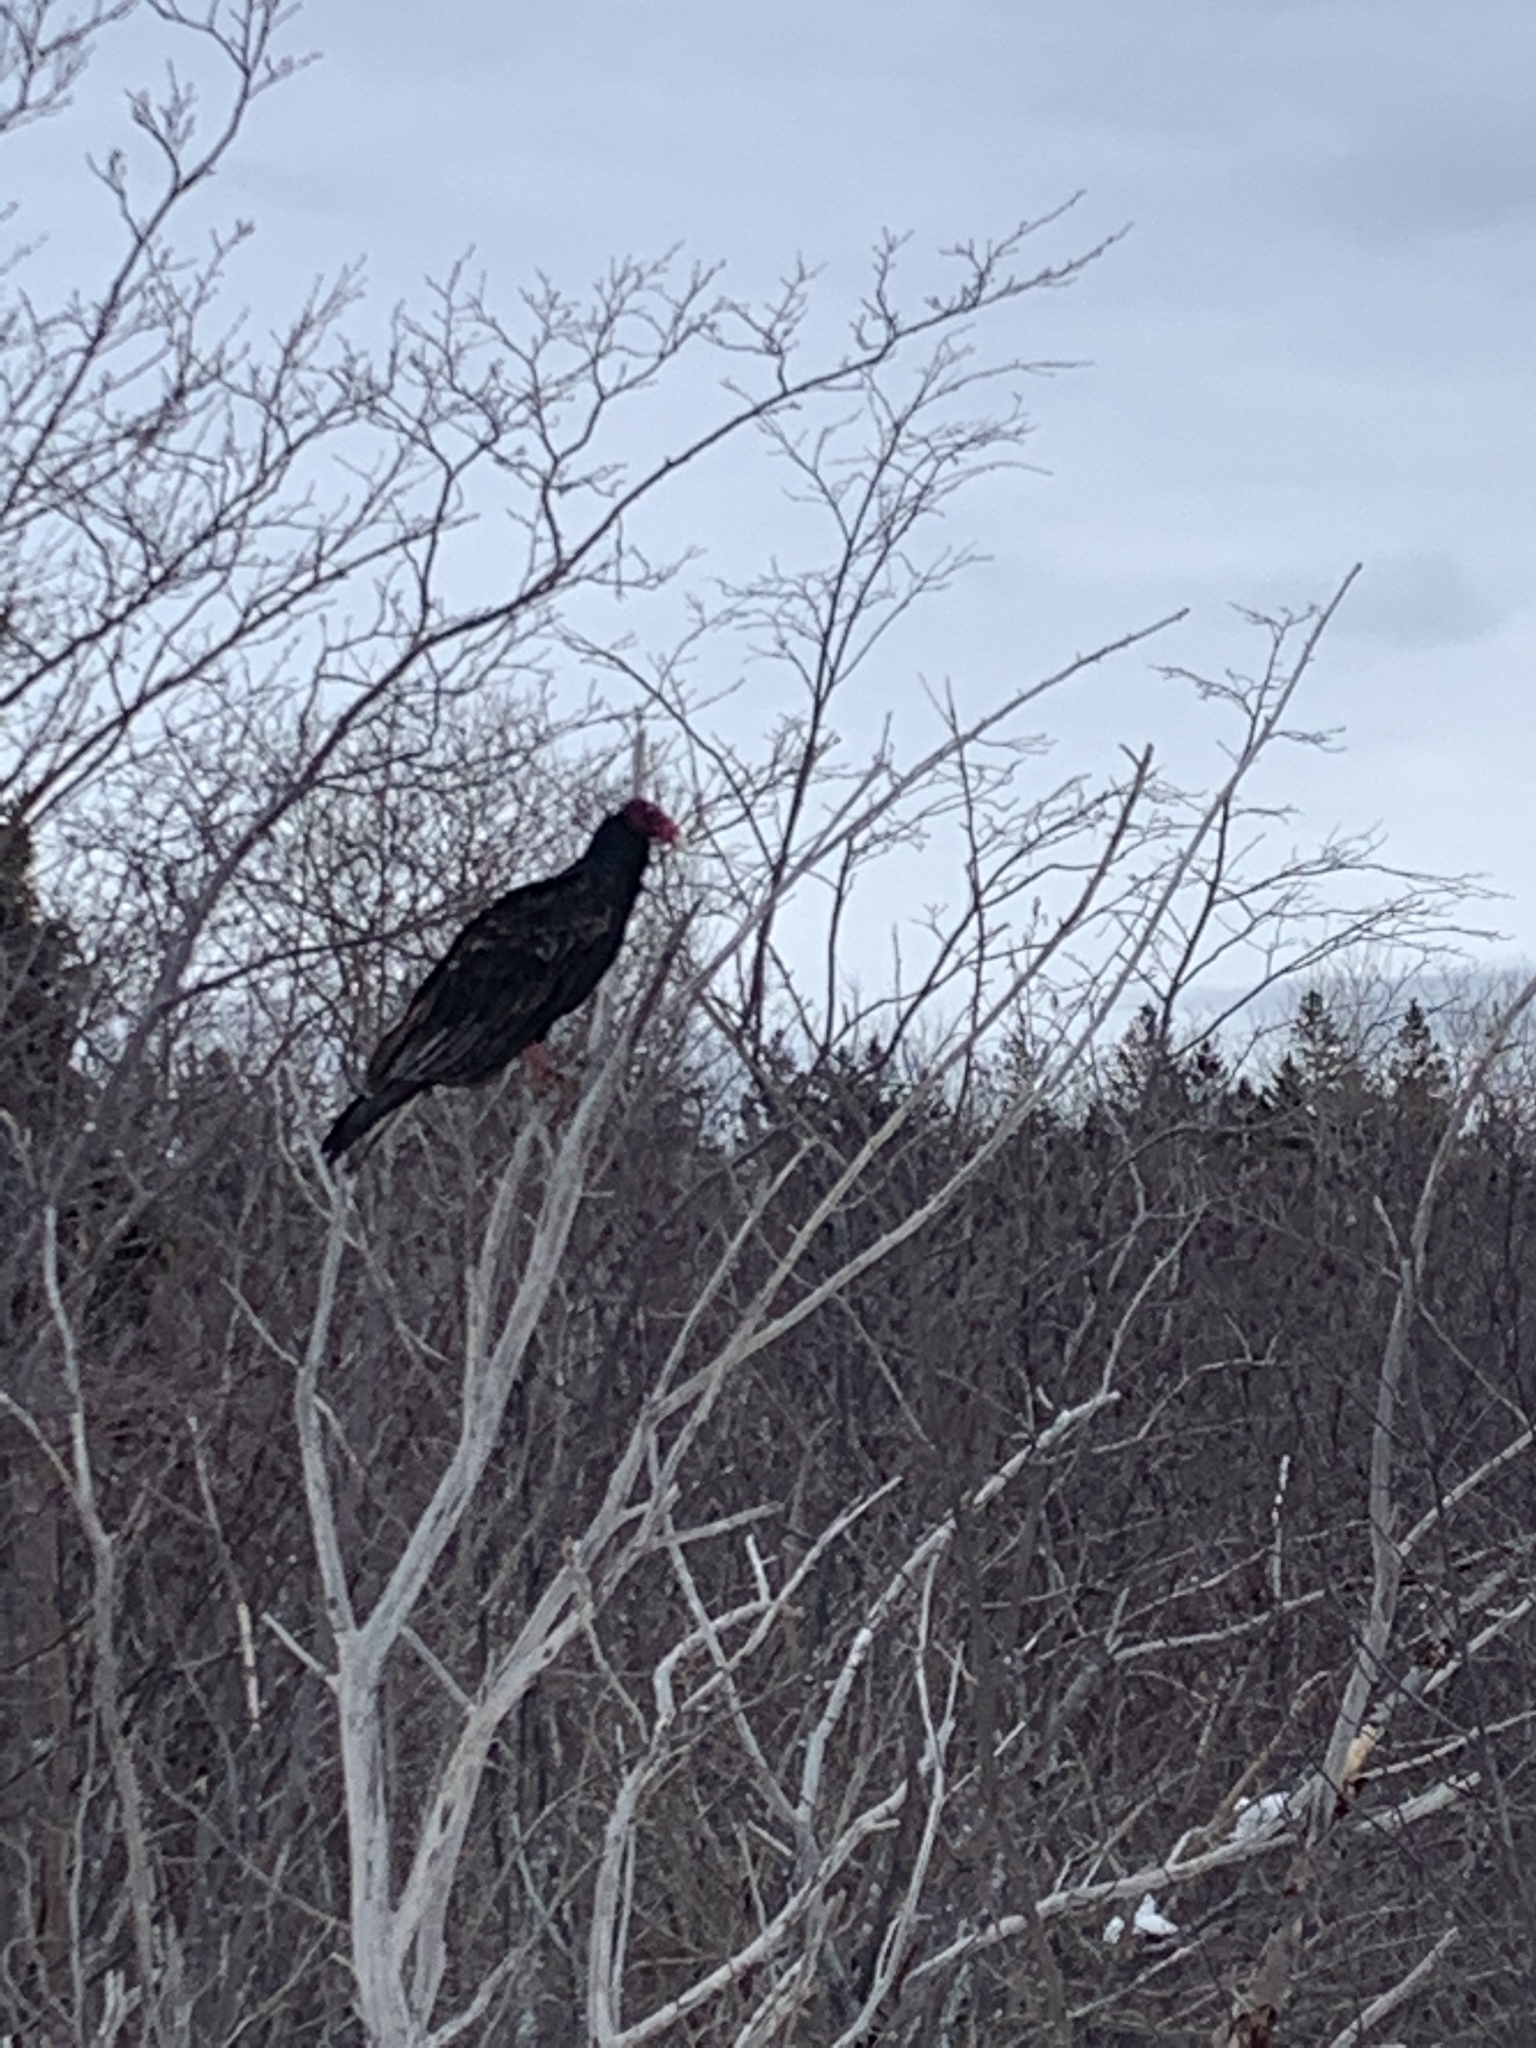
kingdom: Animalia
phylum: Chordata
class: Aves
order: Accipitriformes
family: Cathartidae
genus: Cathartes
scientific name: Cathartes aura
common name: Turkey vulture
